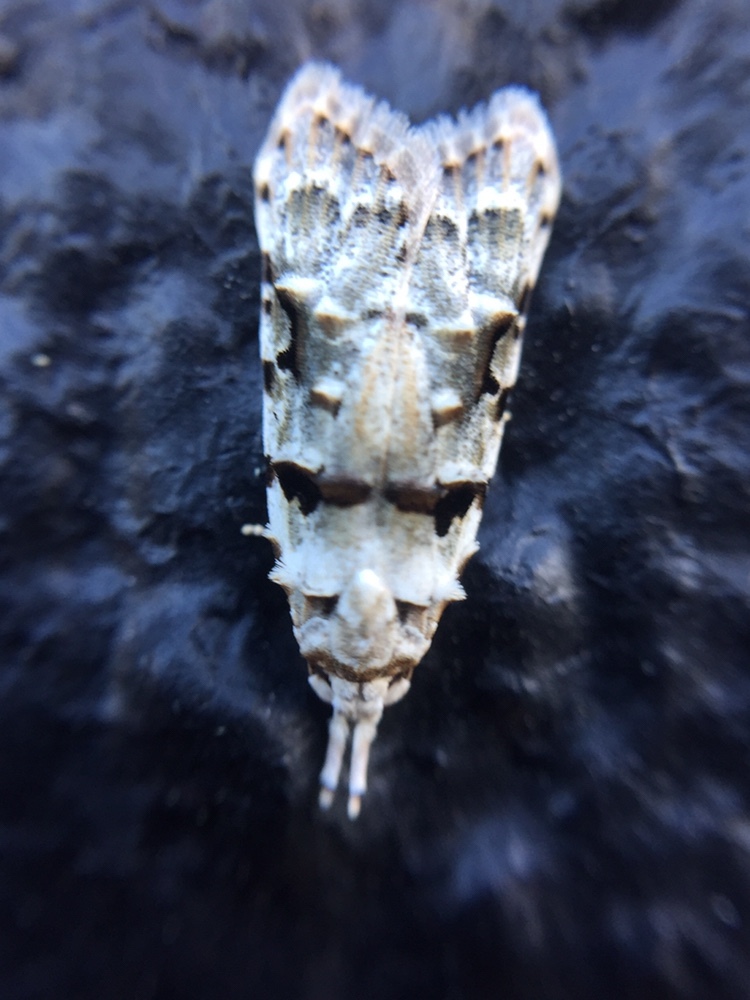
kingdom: Animalia
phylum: Arthropoda
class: Insecta
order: Lepidoptera
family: Carposinidae
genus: Coscinoptycha
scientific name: Coscinoptycha improbana
